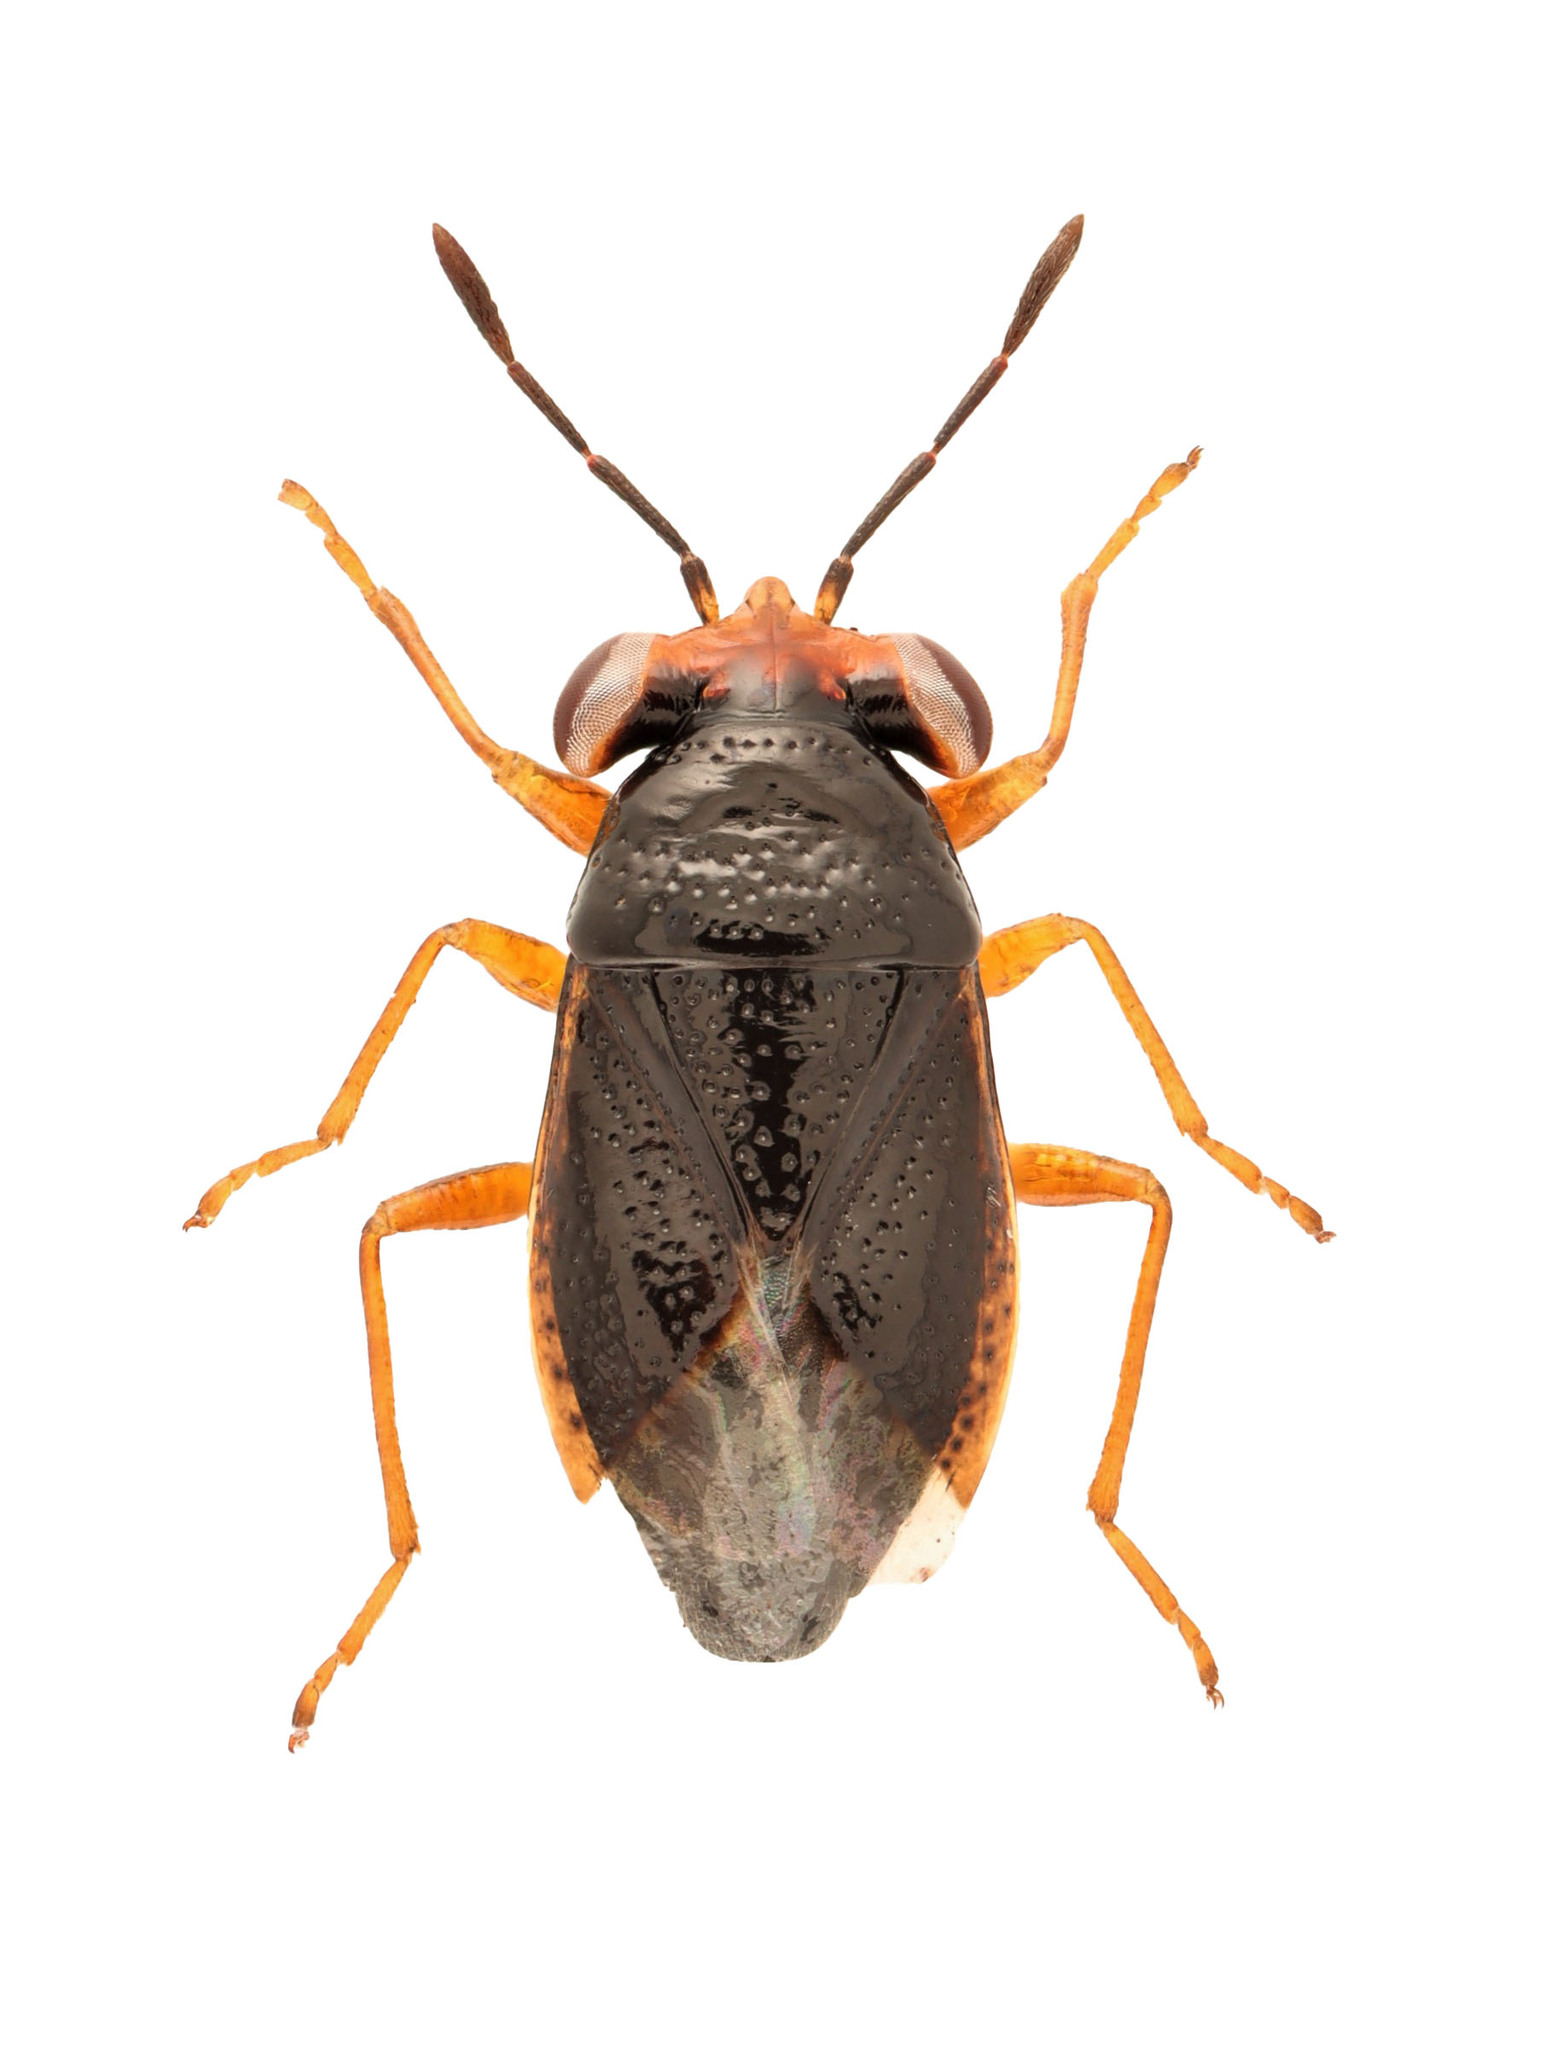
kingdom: Animalia
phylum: Arthropoda
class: Insecta
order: Hemiptera
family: Geocoridae
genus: Isthmocoris
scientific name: Isthmocoris piceus
